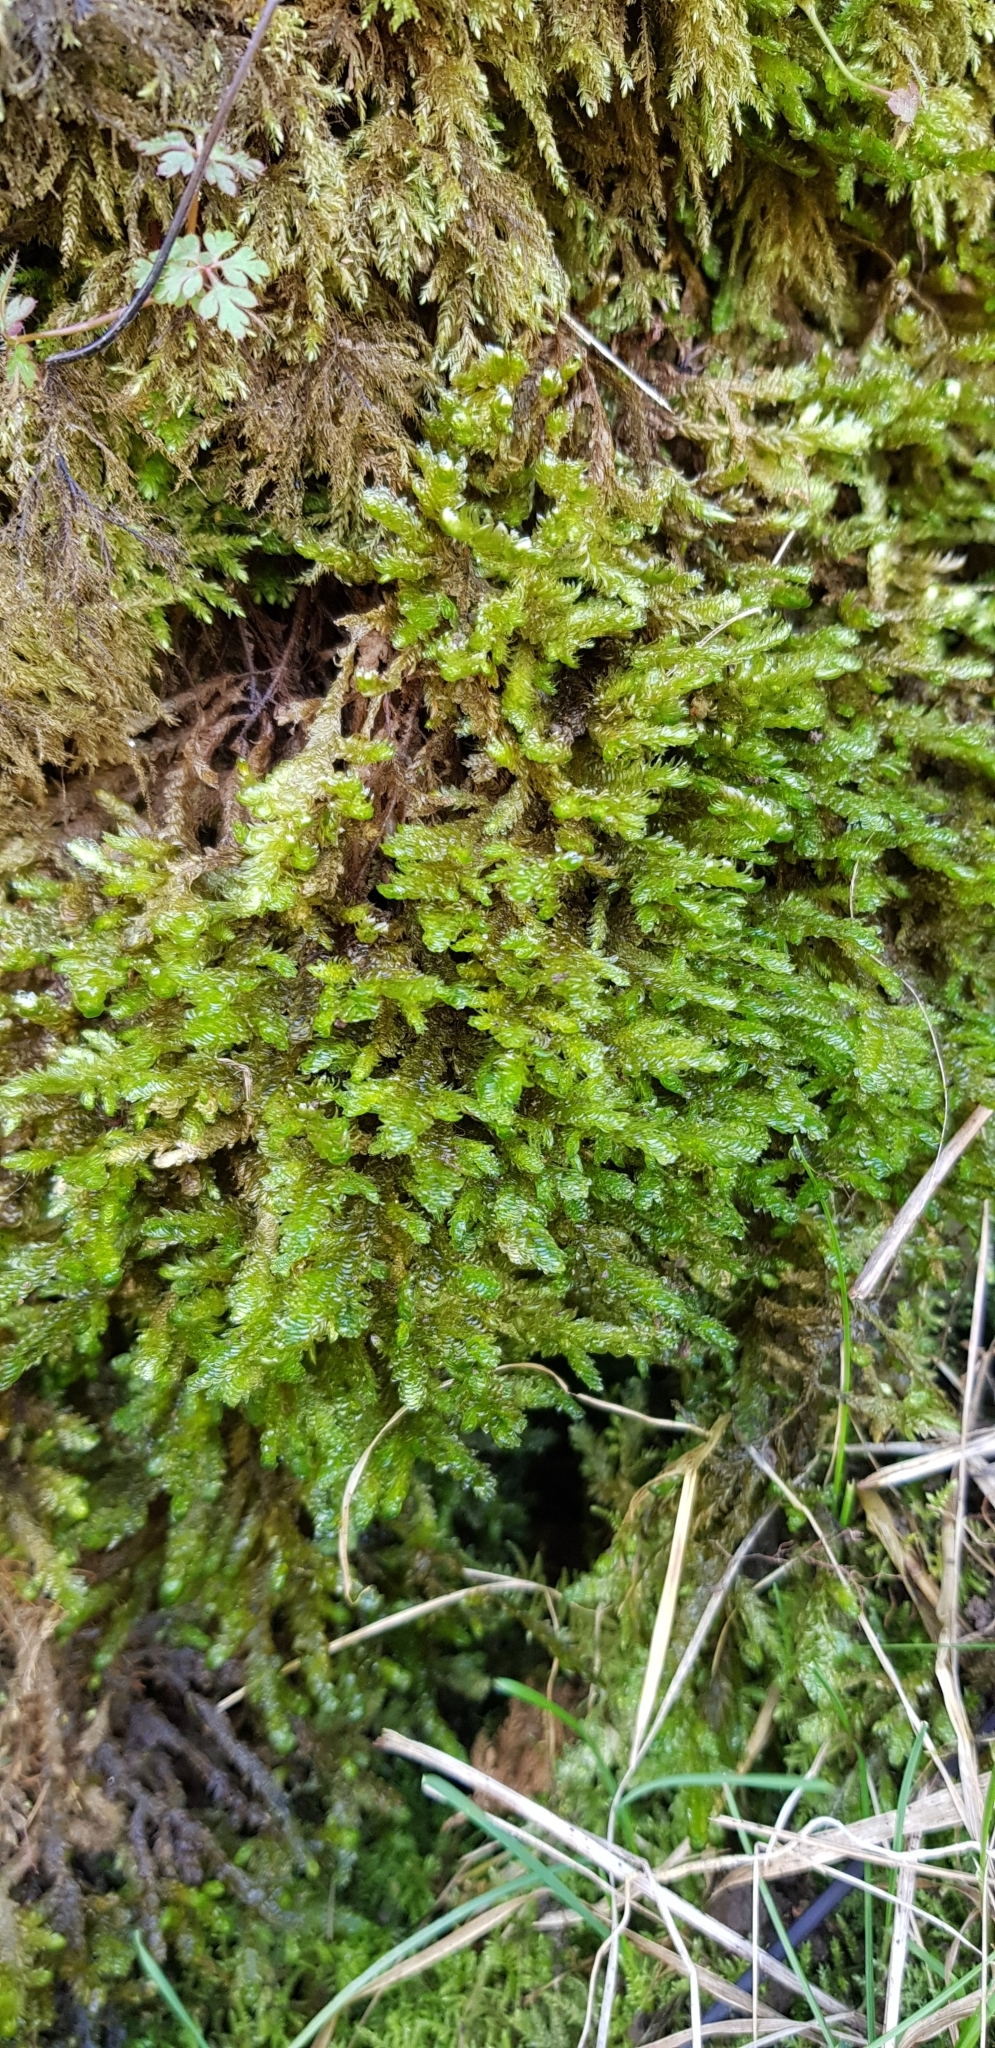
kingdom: Plantae
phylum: Bryophyta
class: Bryopsida
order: Hypnales
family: Neckeraceae
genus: Exsertotheca
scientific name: Exsertotheca crispa
